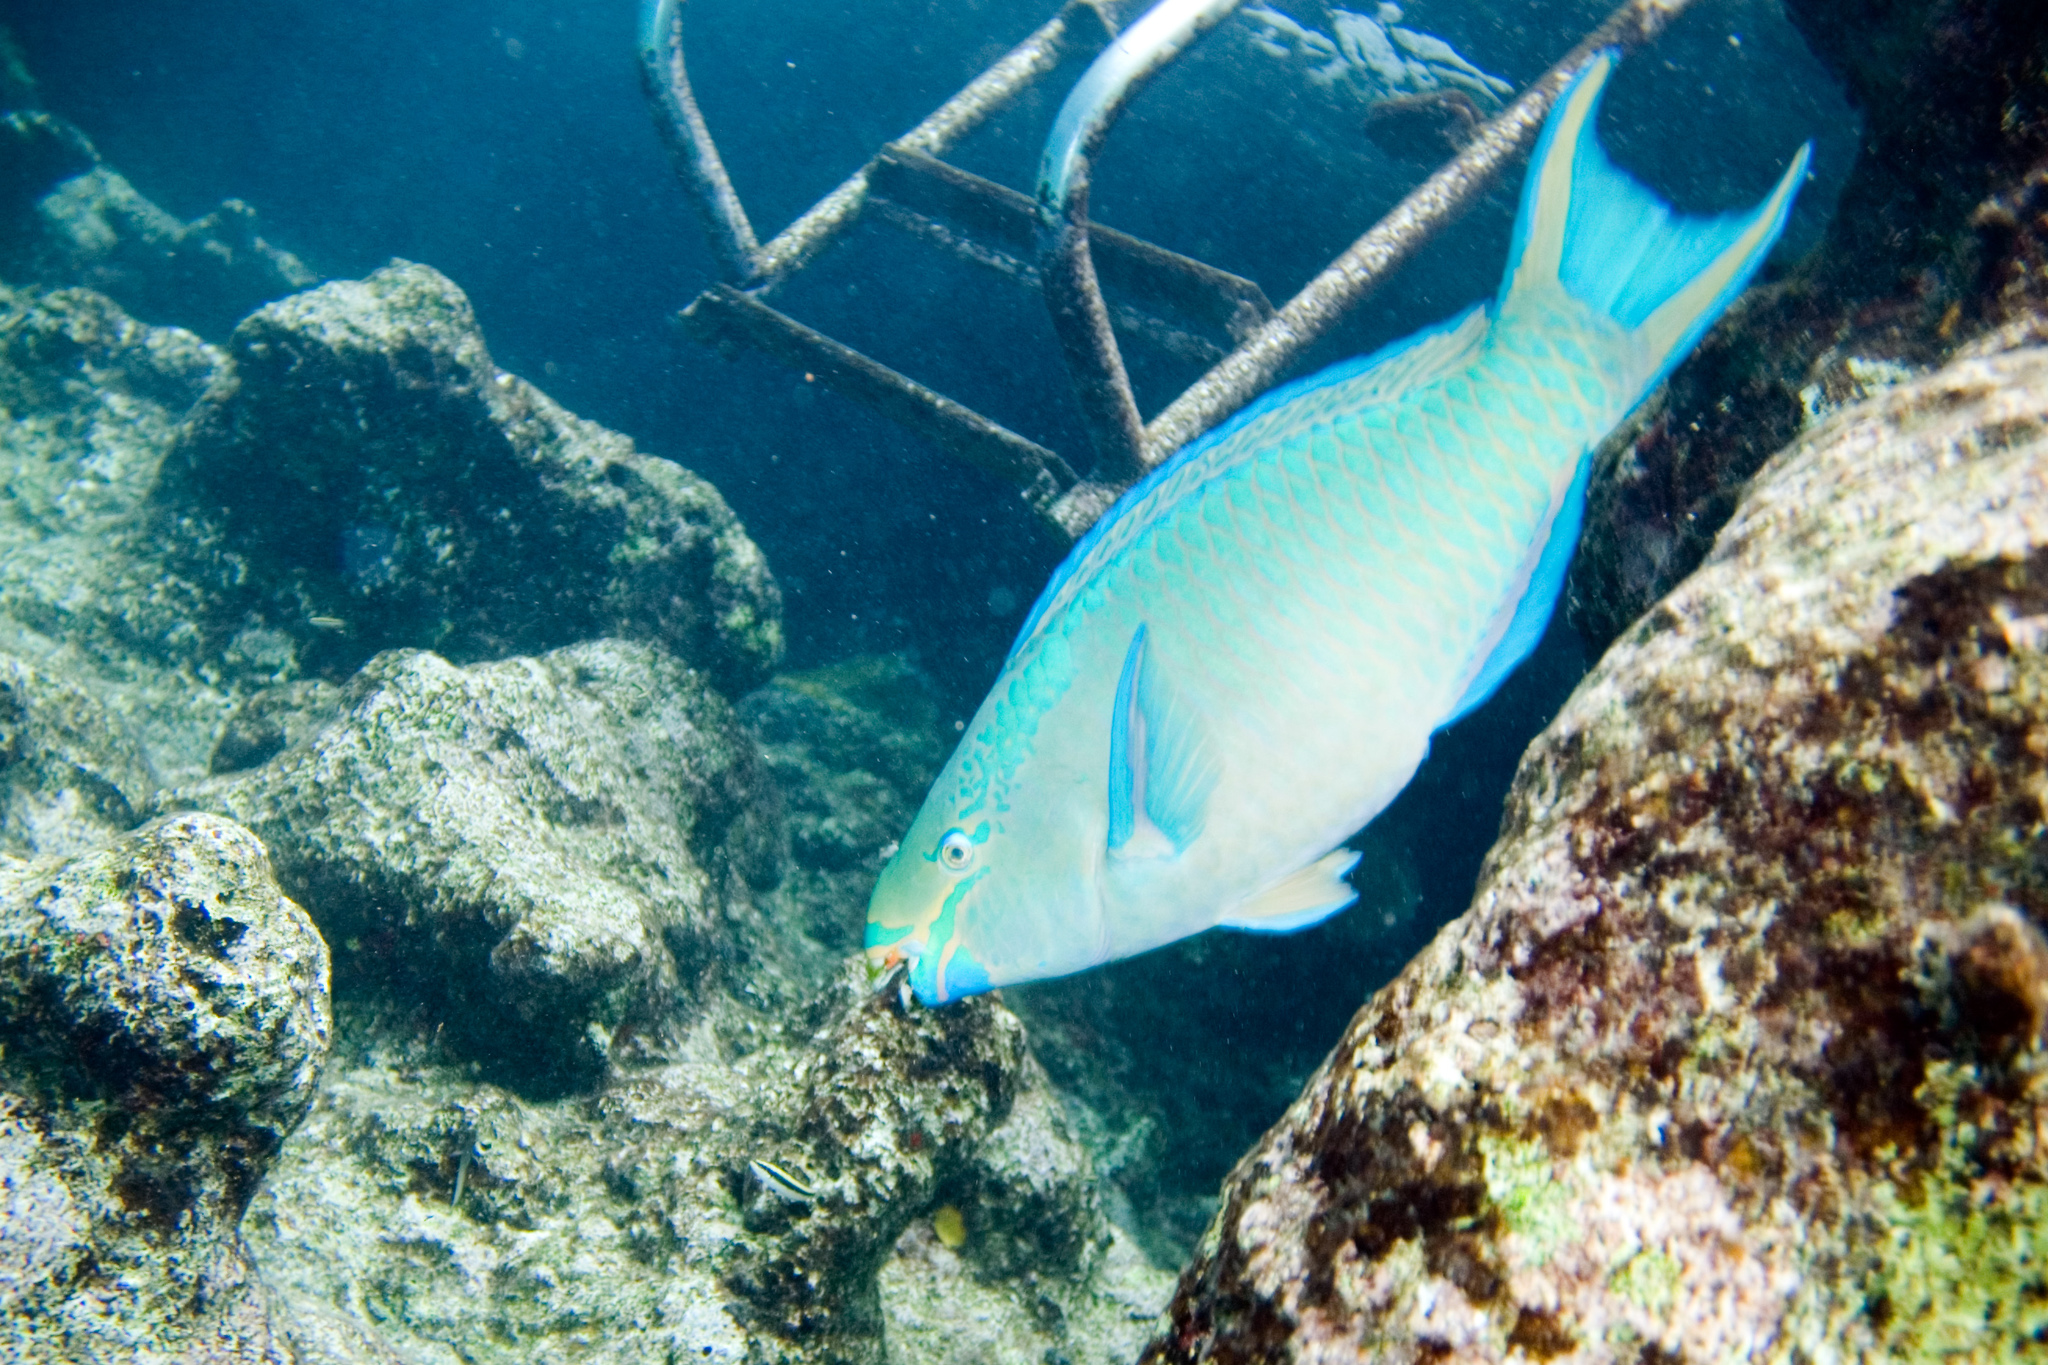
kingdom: Animalia
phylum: Chordata
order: Perciformes
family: Scaridae
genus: Scarus
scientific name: Scarus vetula
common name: Queen parrotfish
